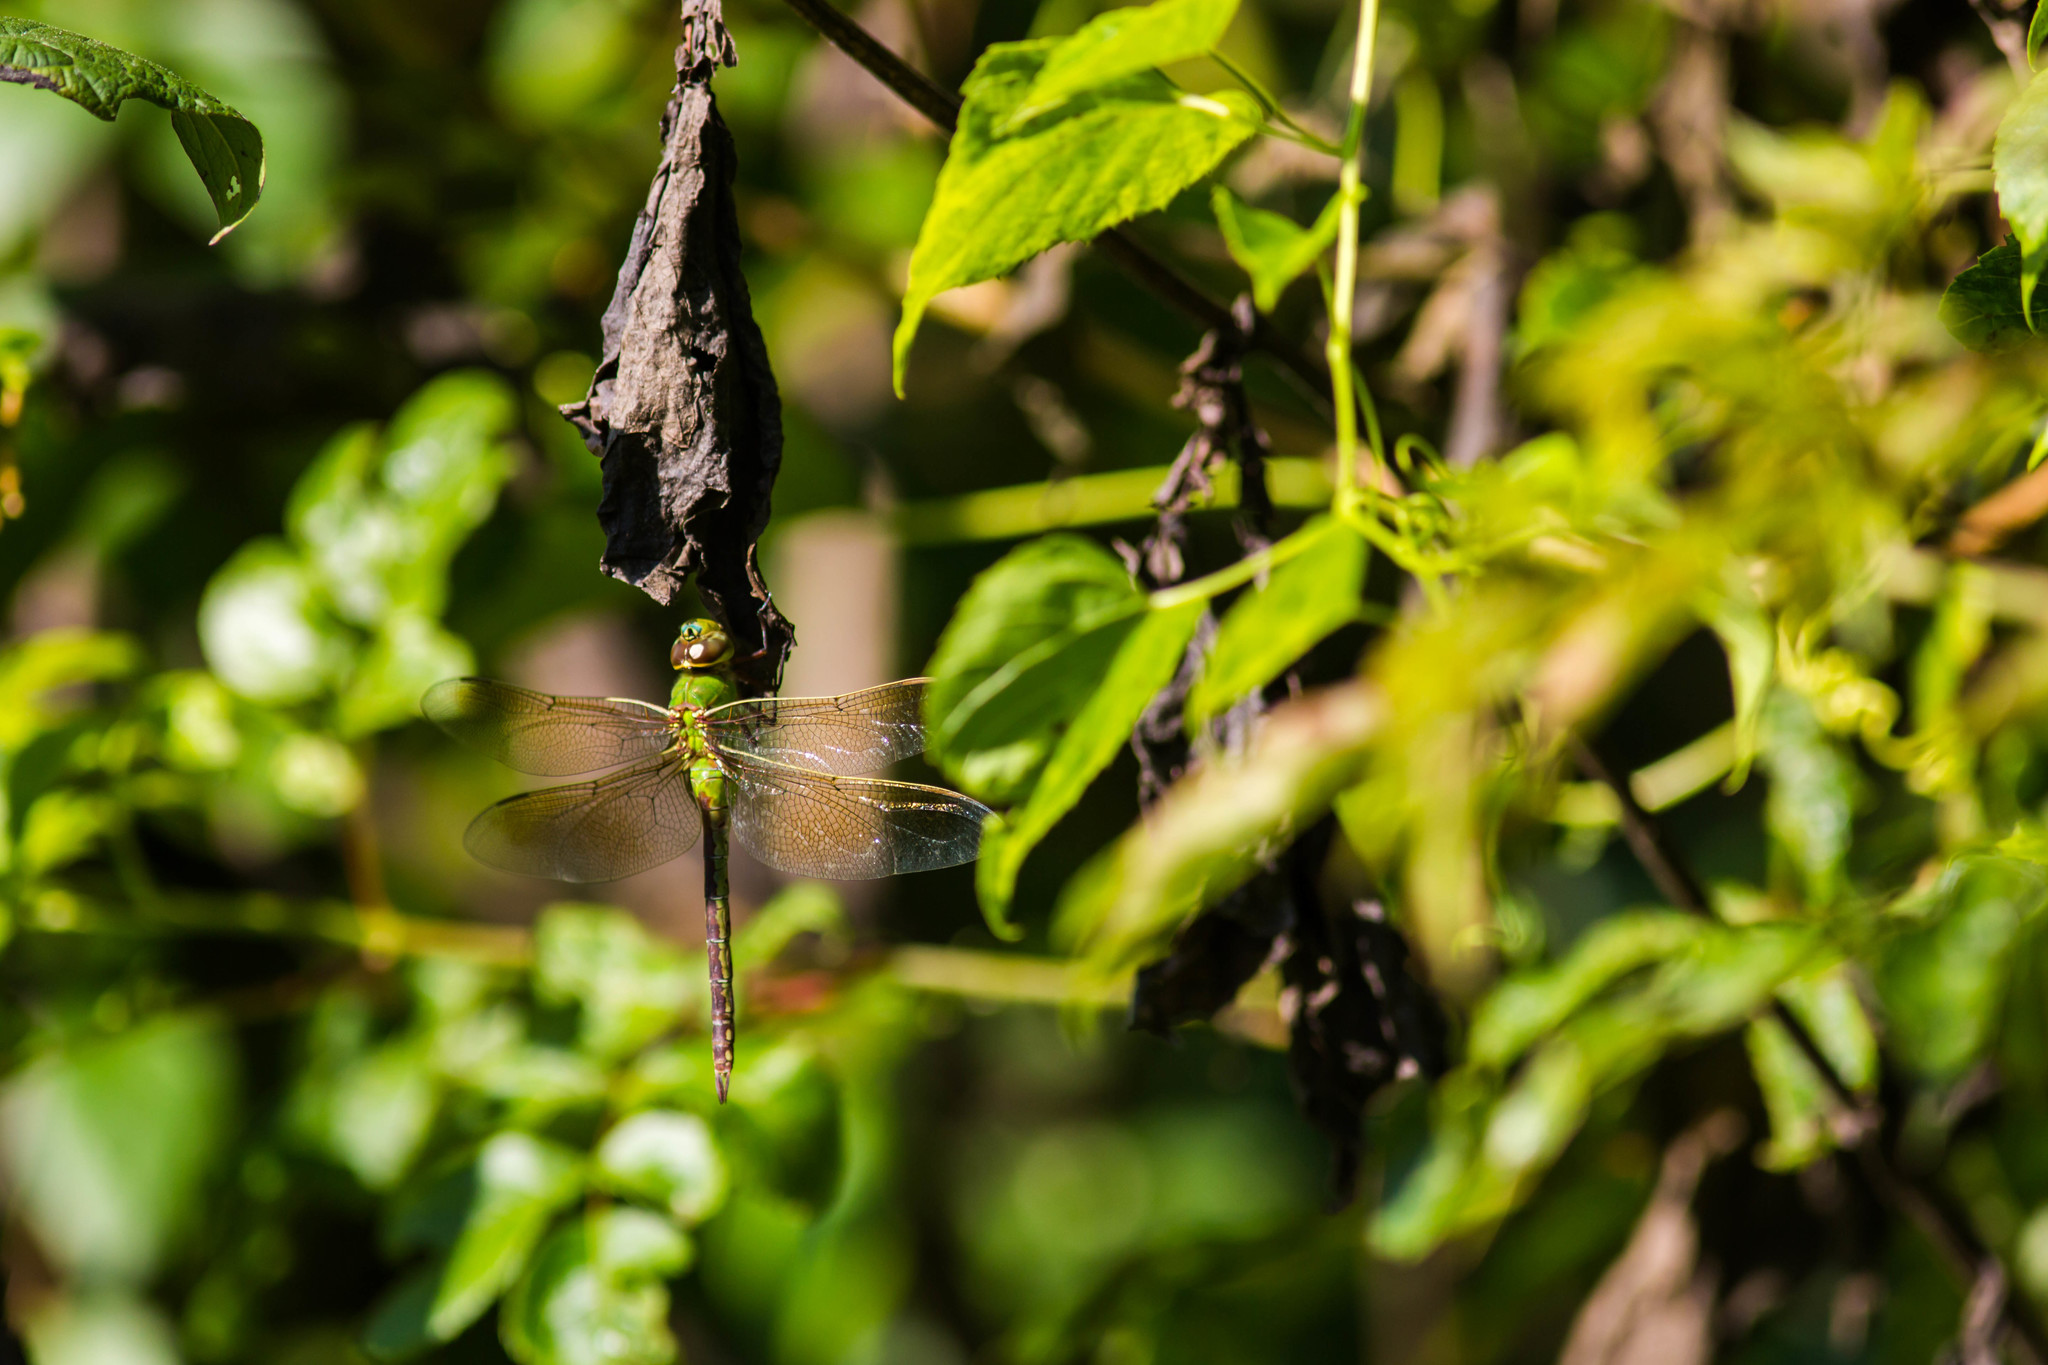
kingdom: Animalia
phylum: Arthropoda
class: Insecta
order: Odonata
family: Aeshnidae
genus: Anax
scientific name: Anax junius
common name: Common green darner
